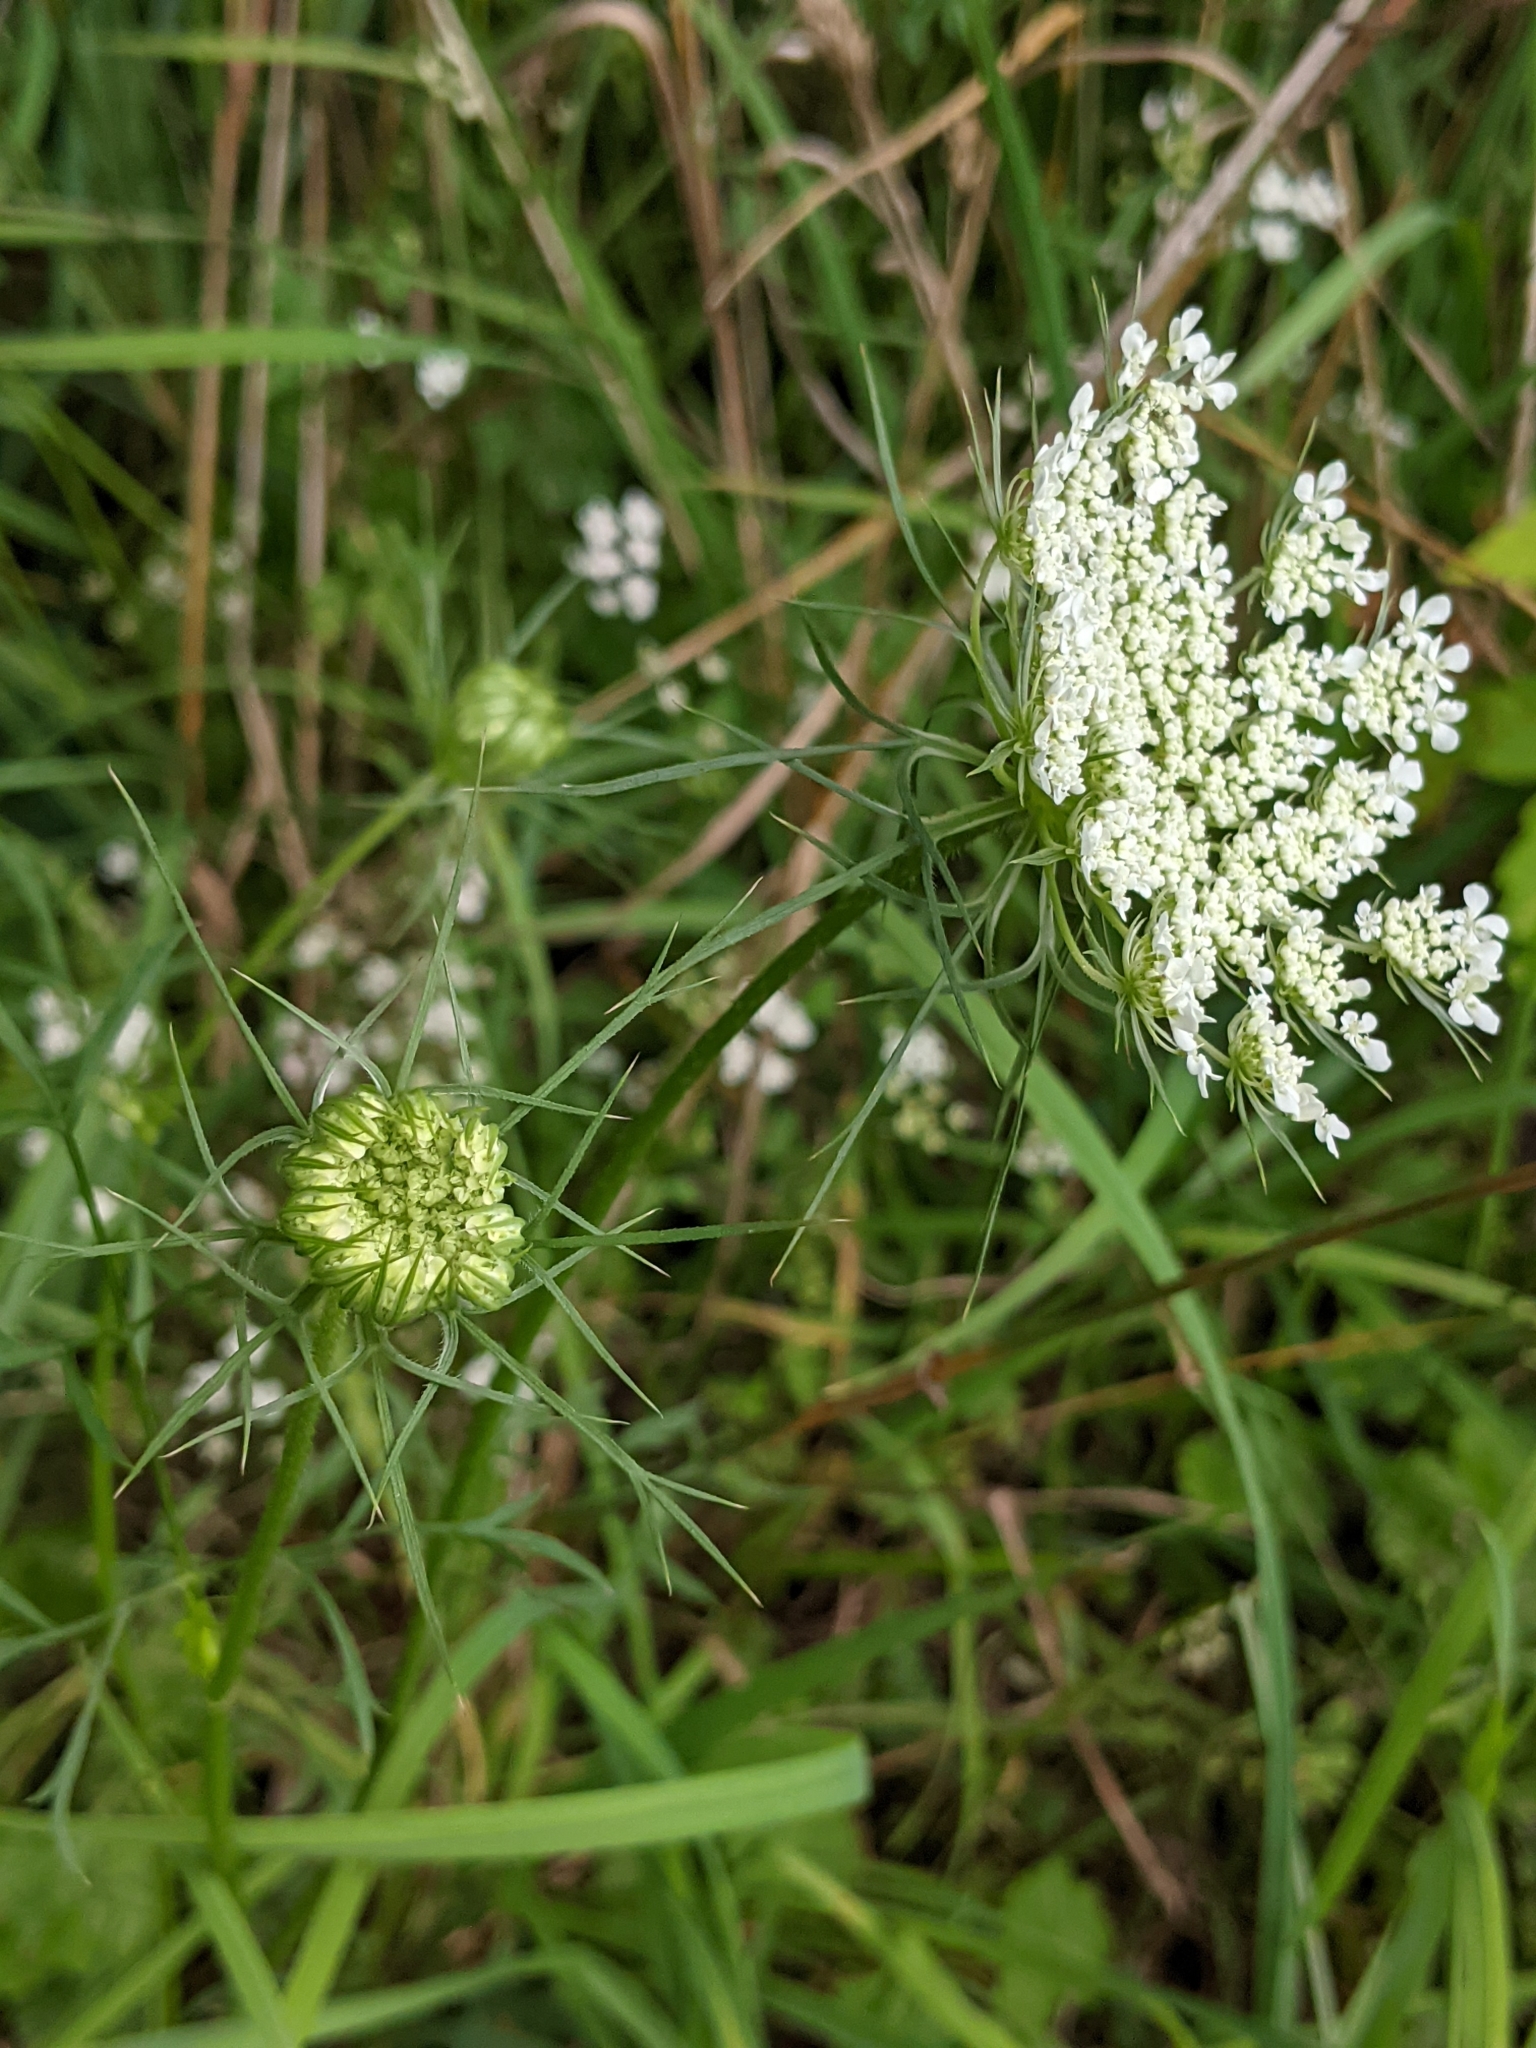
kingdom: Plantae
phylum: Tracheophyta
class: Magnoliopsida
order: Apiales
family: Apiaceae
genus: Daucus
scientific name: Daucus carota
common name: Wild carrot
